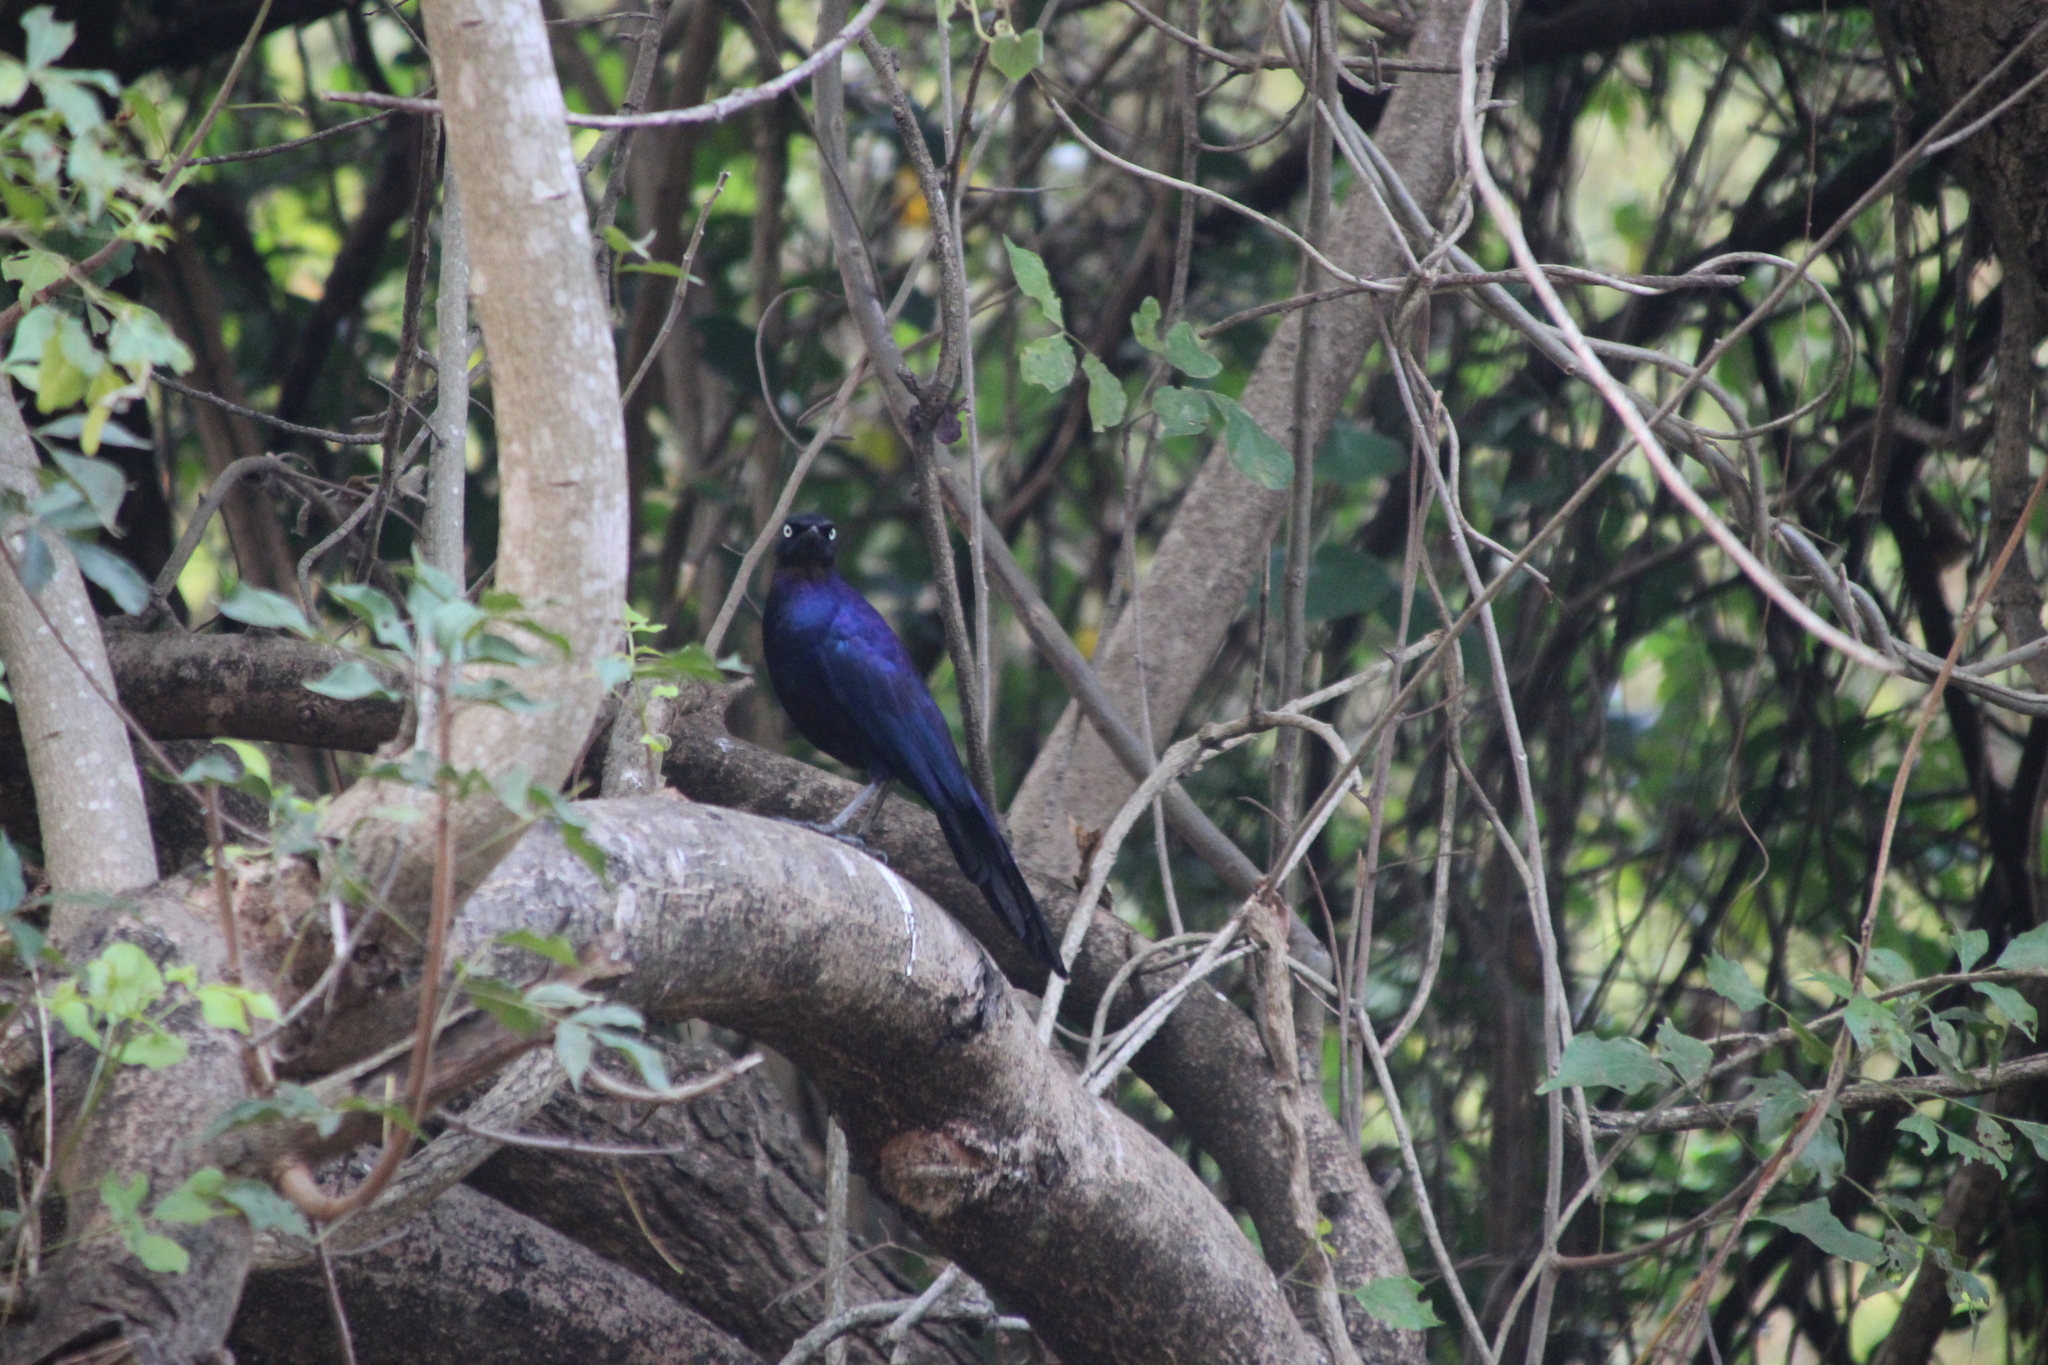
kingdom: Animalia
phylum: Chordata
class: Aves
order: Passeriformes
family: Sturnidae
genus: Lamprotornis
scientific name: Lamprotornis purpuroptera
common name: Rüppell's starling
